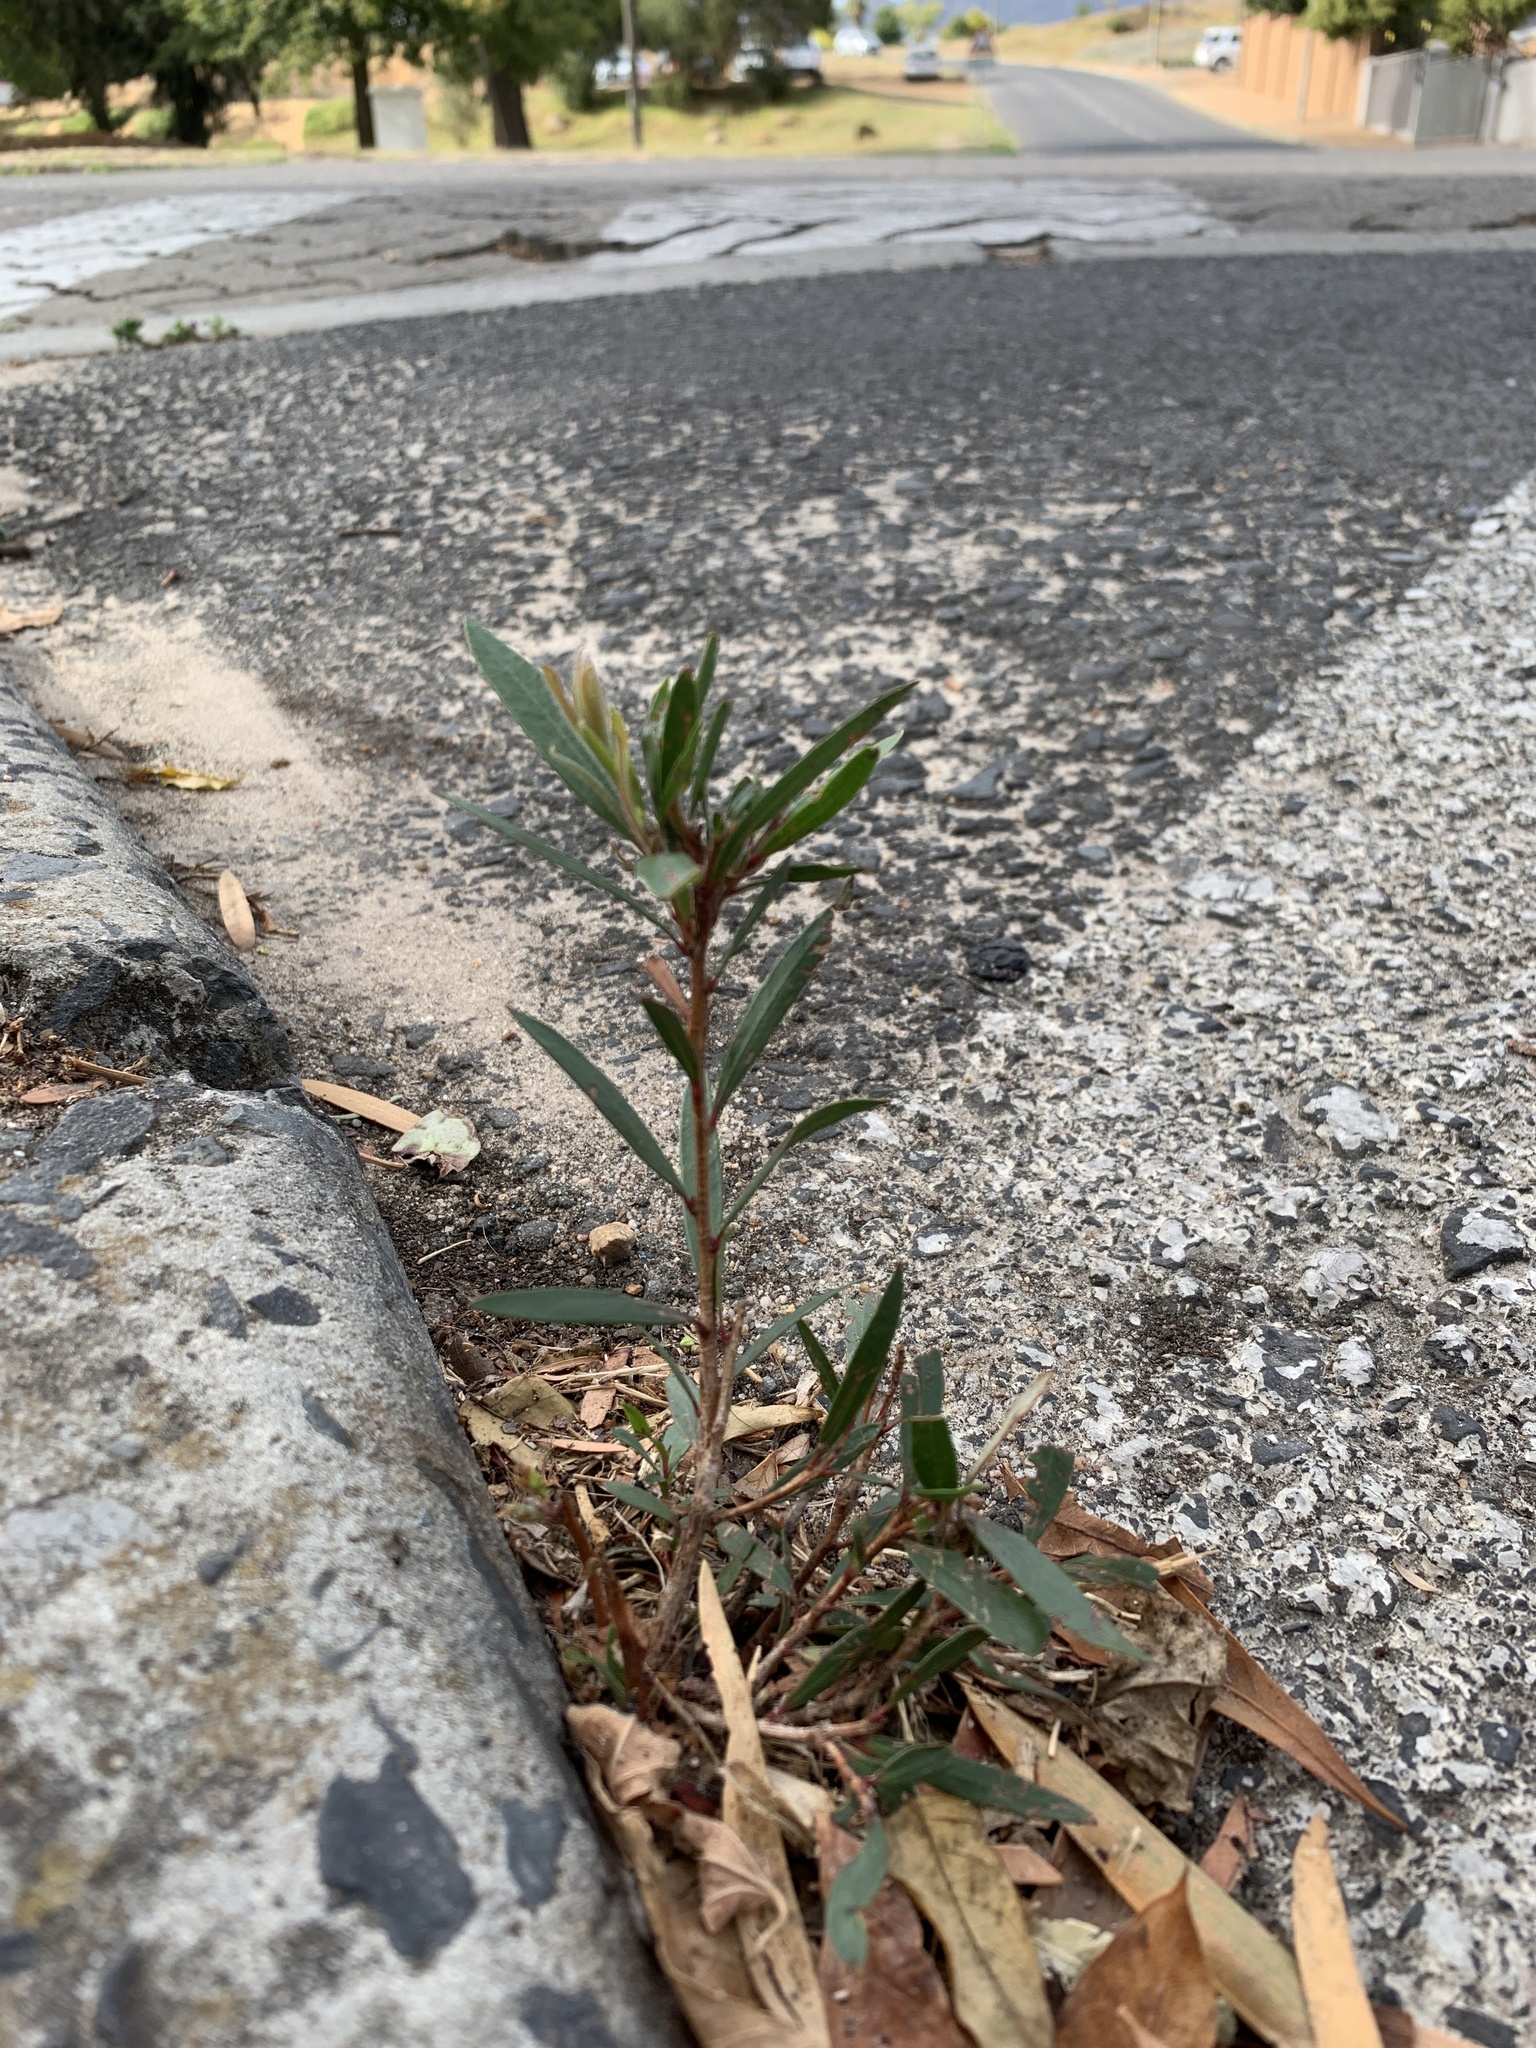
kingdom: Plantae
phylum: Tracheophyta
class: Magnoliopsida
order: Myrtales
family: Myrtaceae
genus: Callistemon
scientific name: Callistemon viminalis
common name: Drooping bottlebrush
